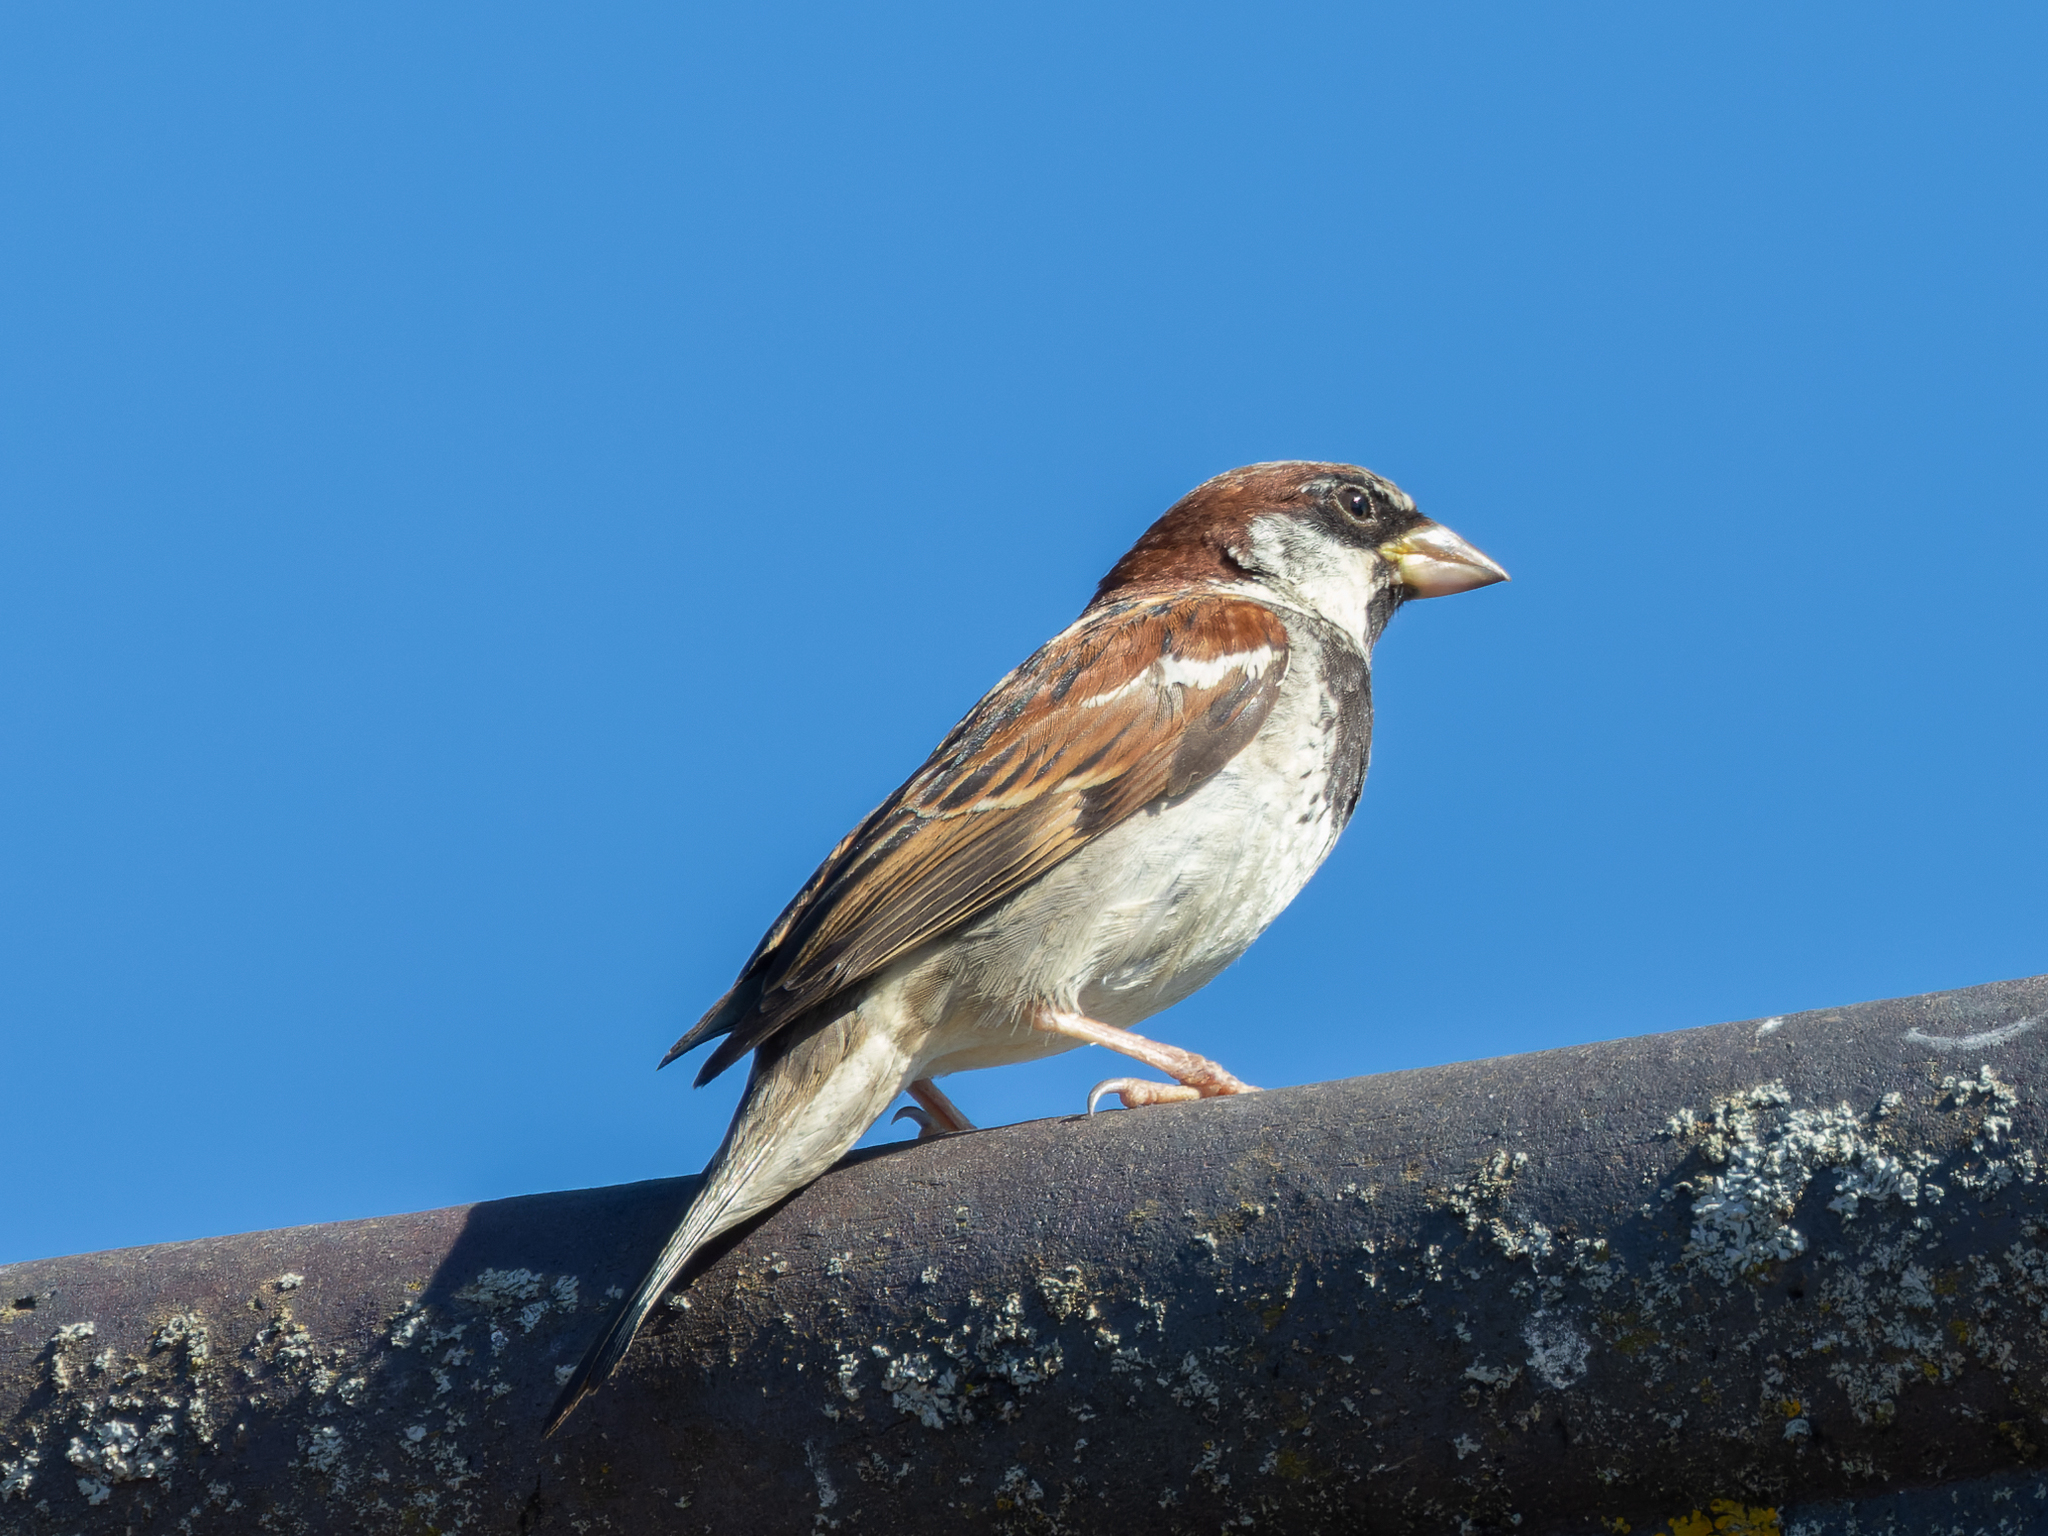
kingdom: Animalia
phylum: Chordata
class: Aves
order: Passeriformes
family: Passeridae
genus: Passer
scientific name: Passer domesticus
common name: House sparrow
